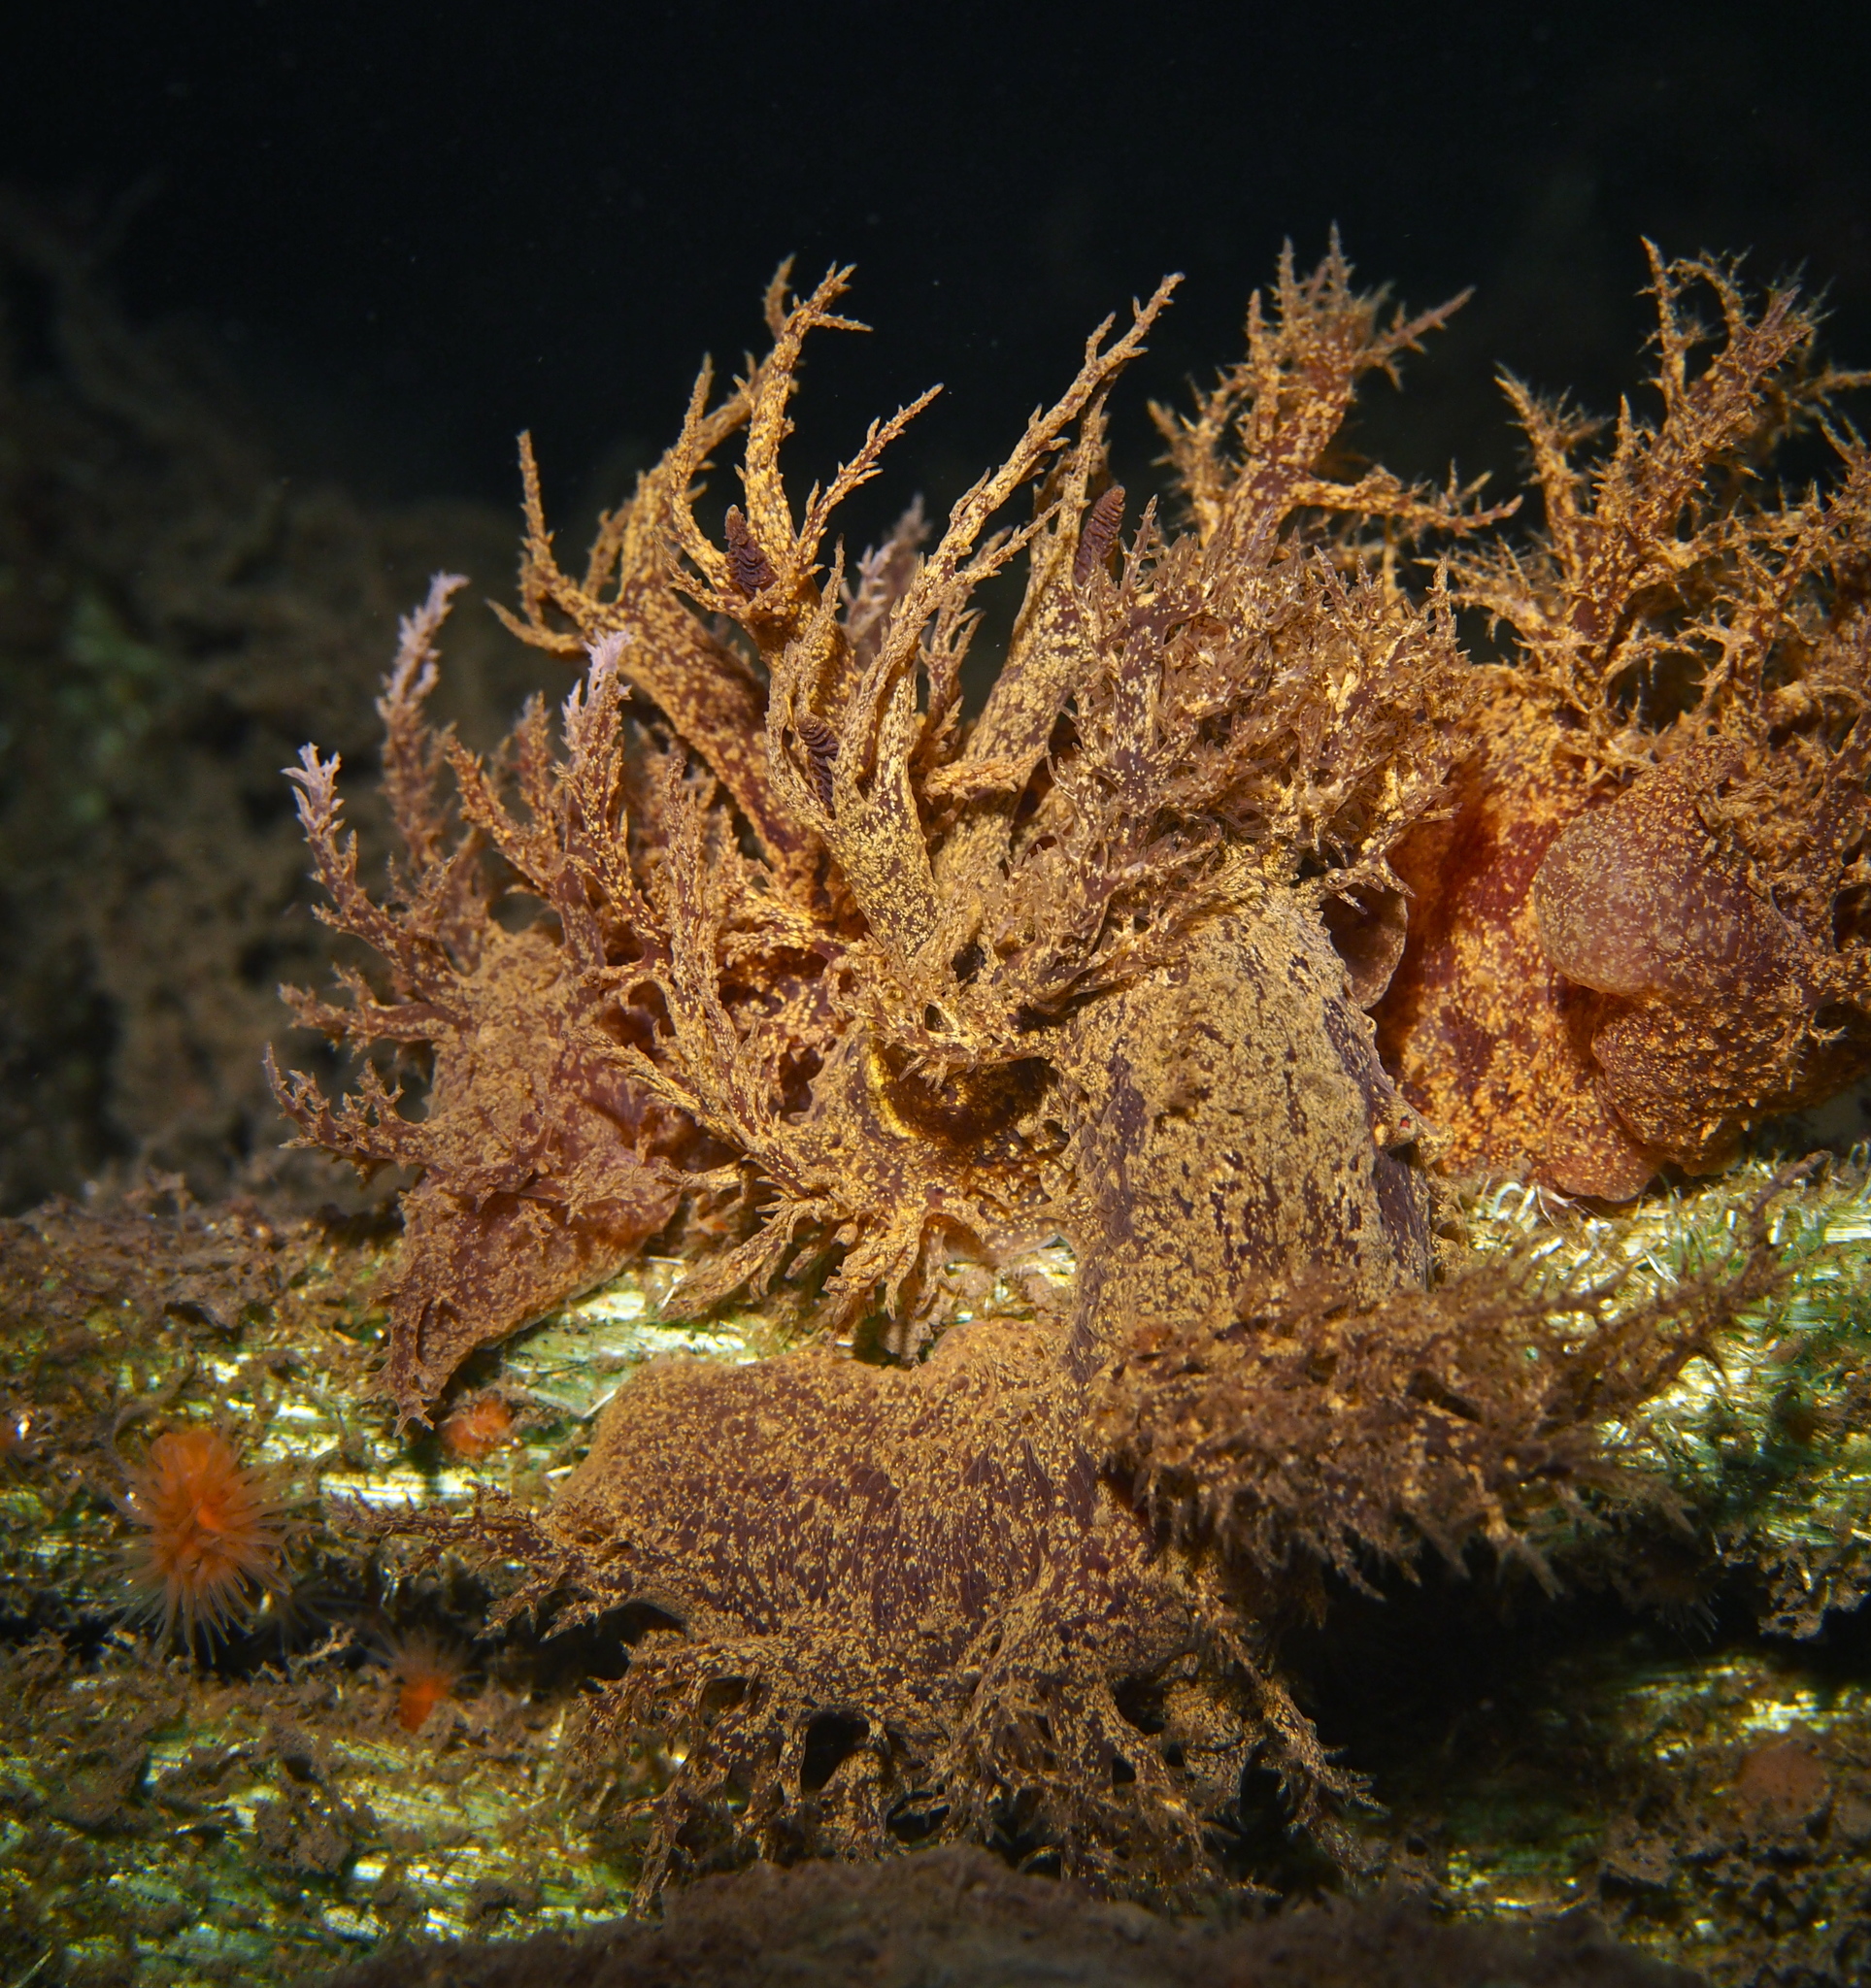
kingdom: Animalia
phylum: Mollusca
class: Gastropoda
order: Nudibranchia
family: Dendronotidae
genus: Dendronotus
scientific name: Dendronotus europaeus
